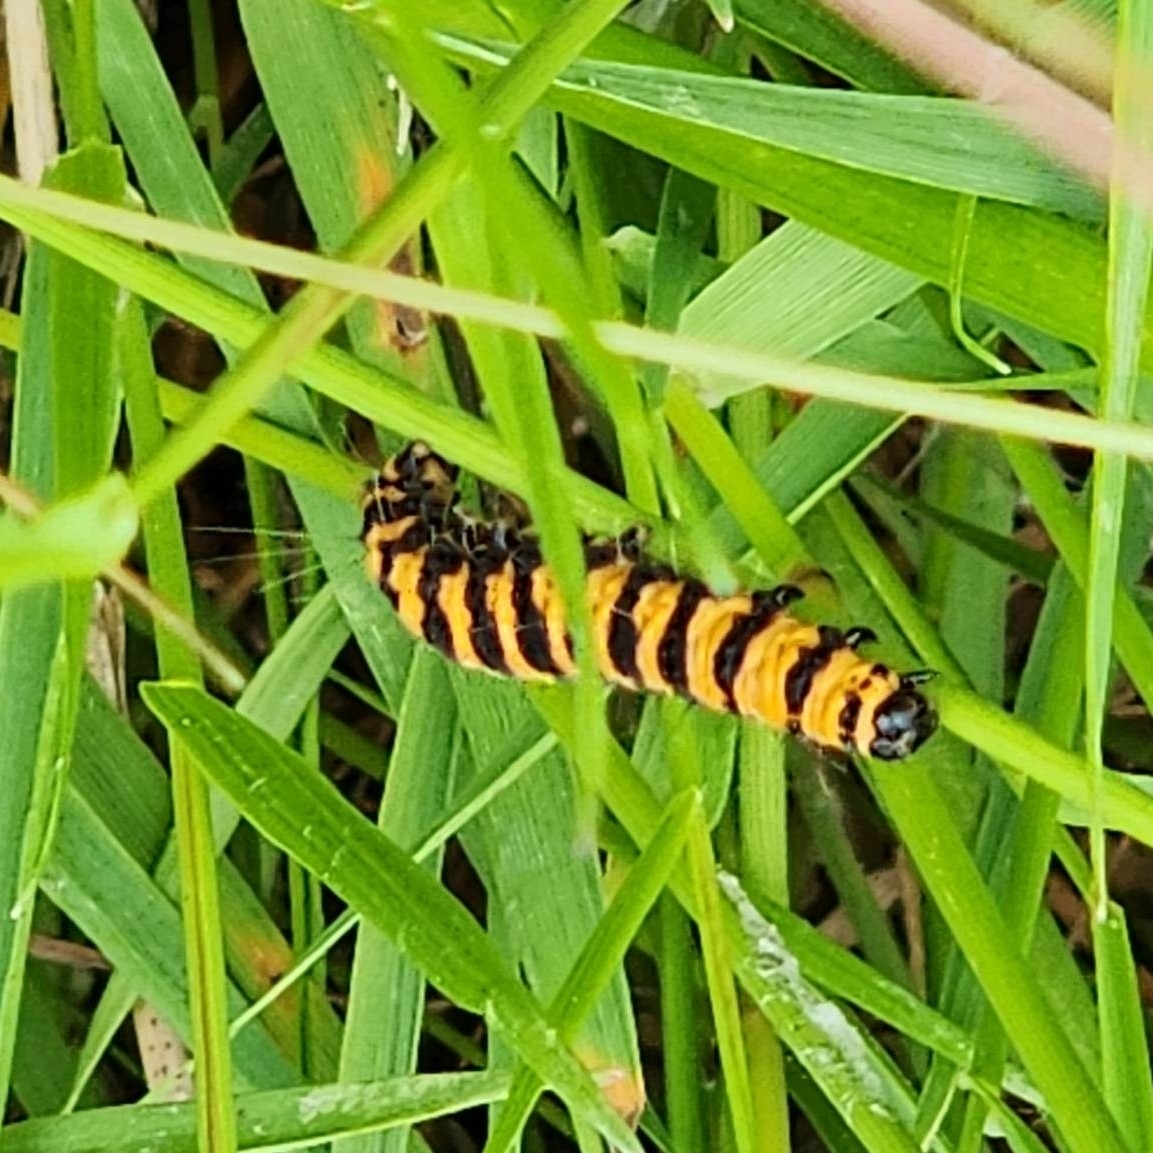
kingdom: Animalia
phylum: Arthropoda
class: Insecta
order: Lepidoptera
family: Erebidae
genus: Tyria
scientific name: Tyria jacobaeae
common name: Cinnabar
